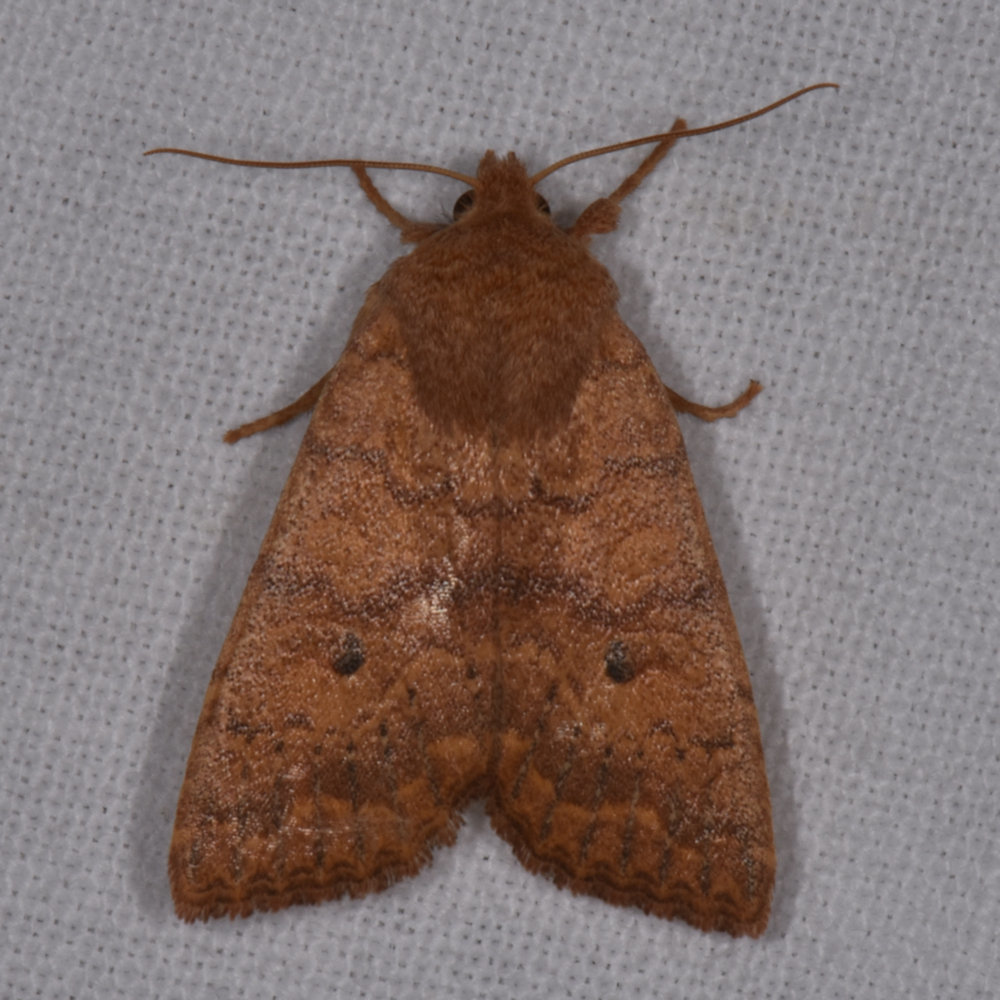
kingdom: Animalia
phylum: Arthropoda
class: Insecta
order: Lepidoptera
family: Noctuidae
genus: Agrochola
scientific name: Agrochola bicolorago
